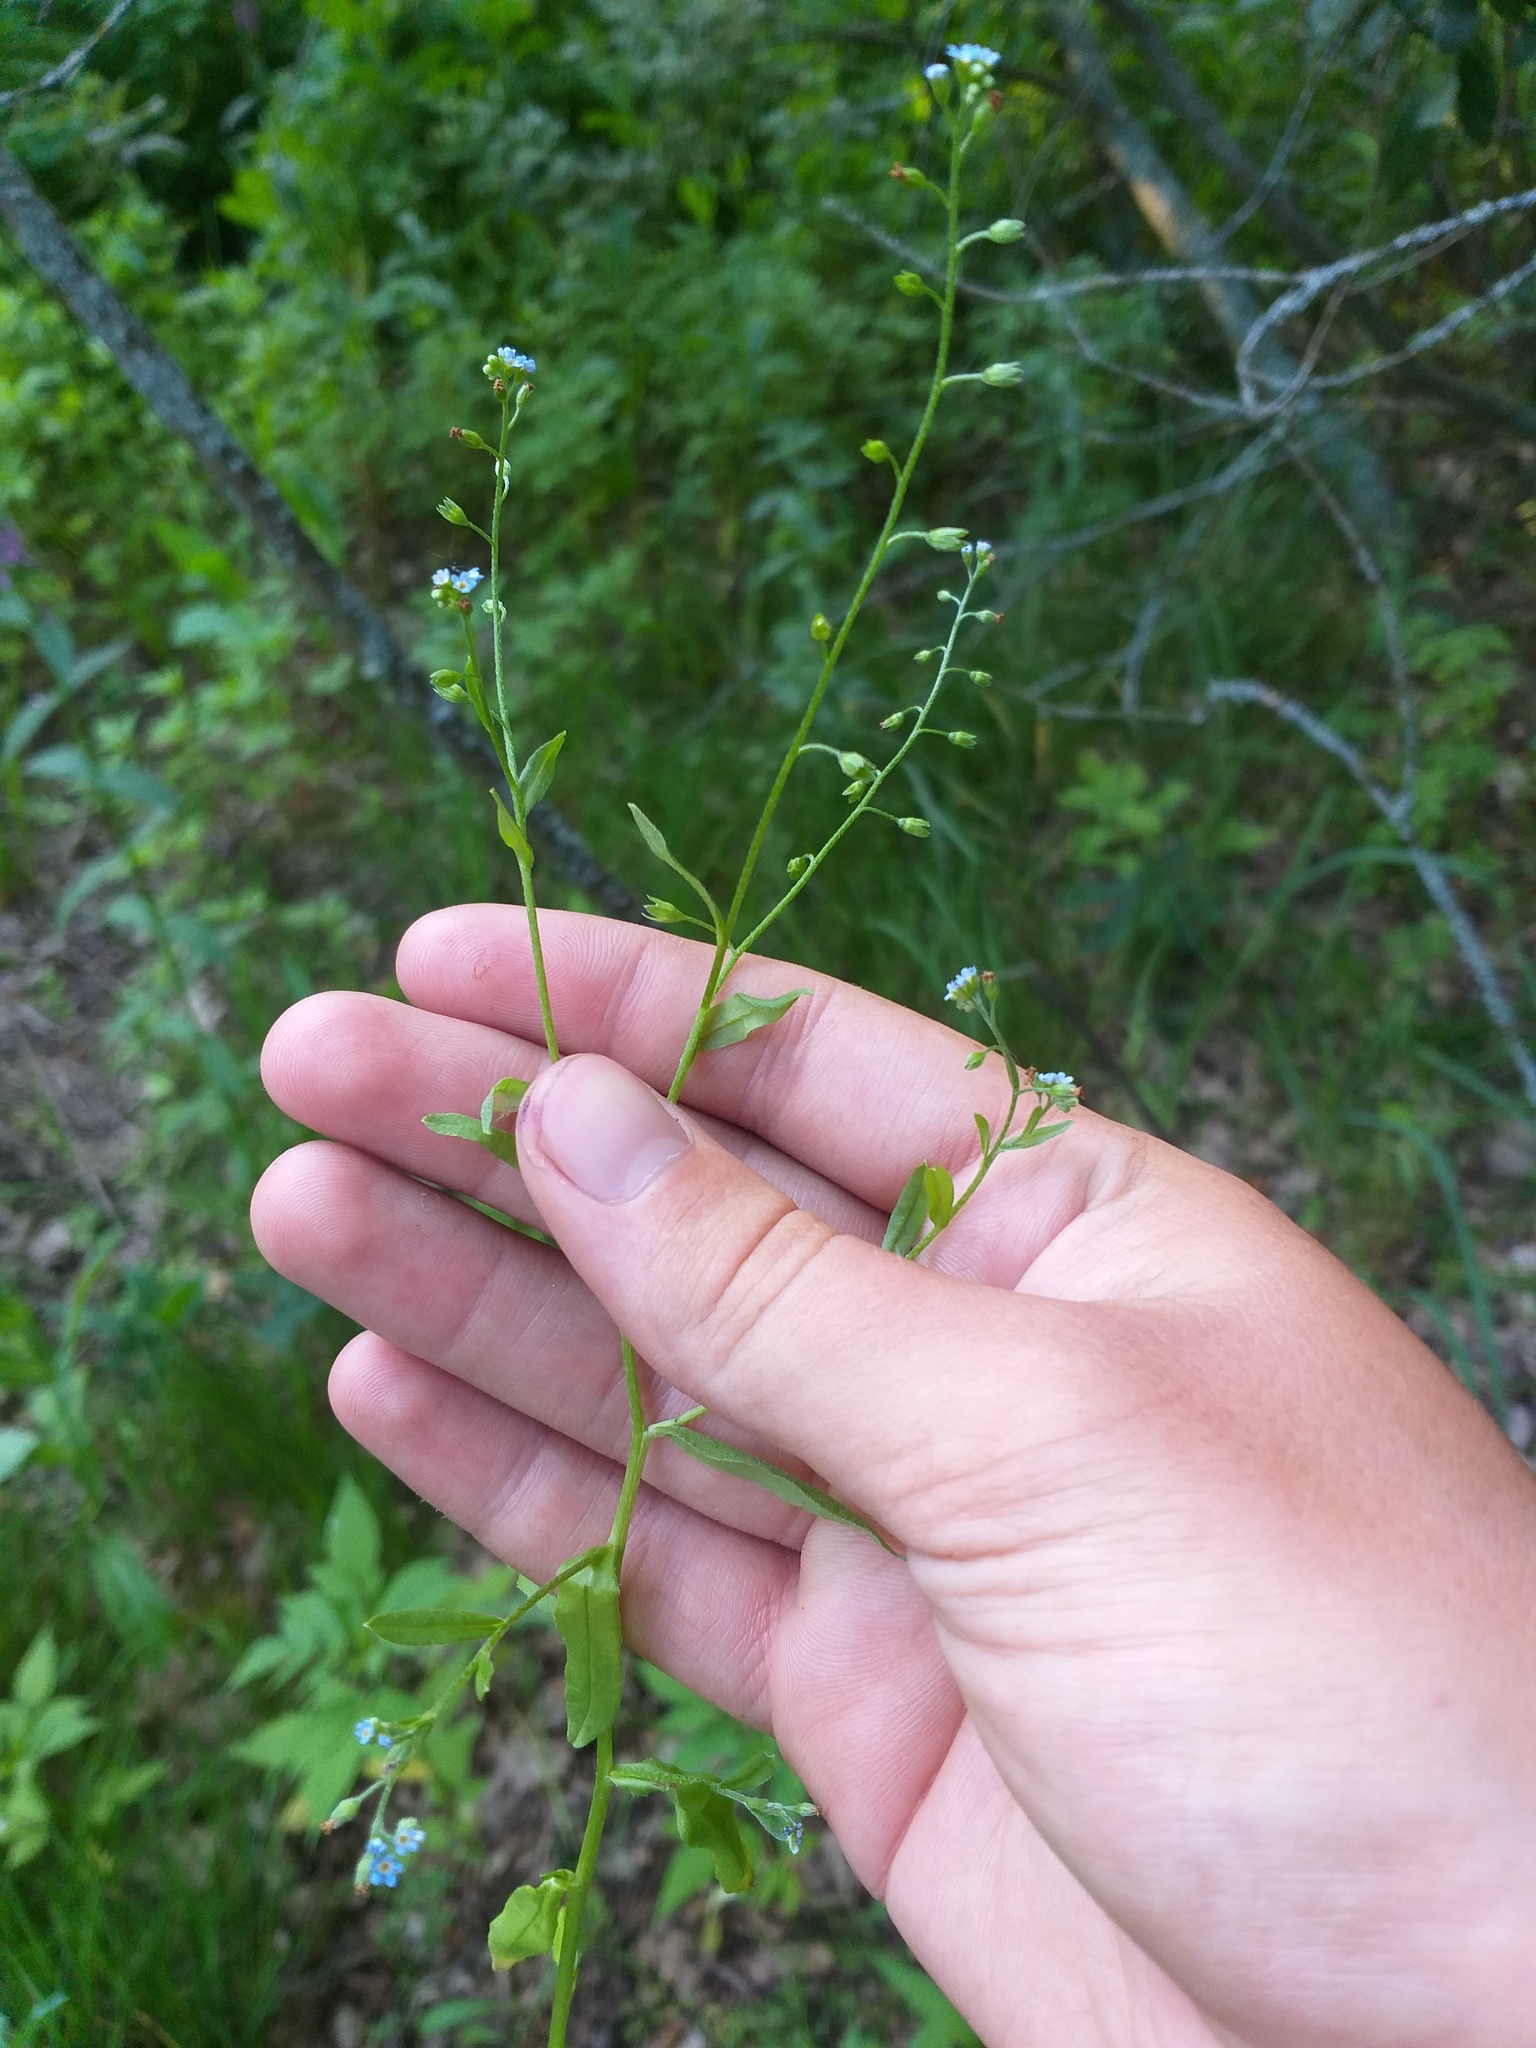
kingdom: Plantae
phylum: Tracheophyta
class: Magnoliopsida
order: Boraginales
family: Boraginaceae
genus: Myosotis
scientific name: Myosotis laxa
